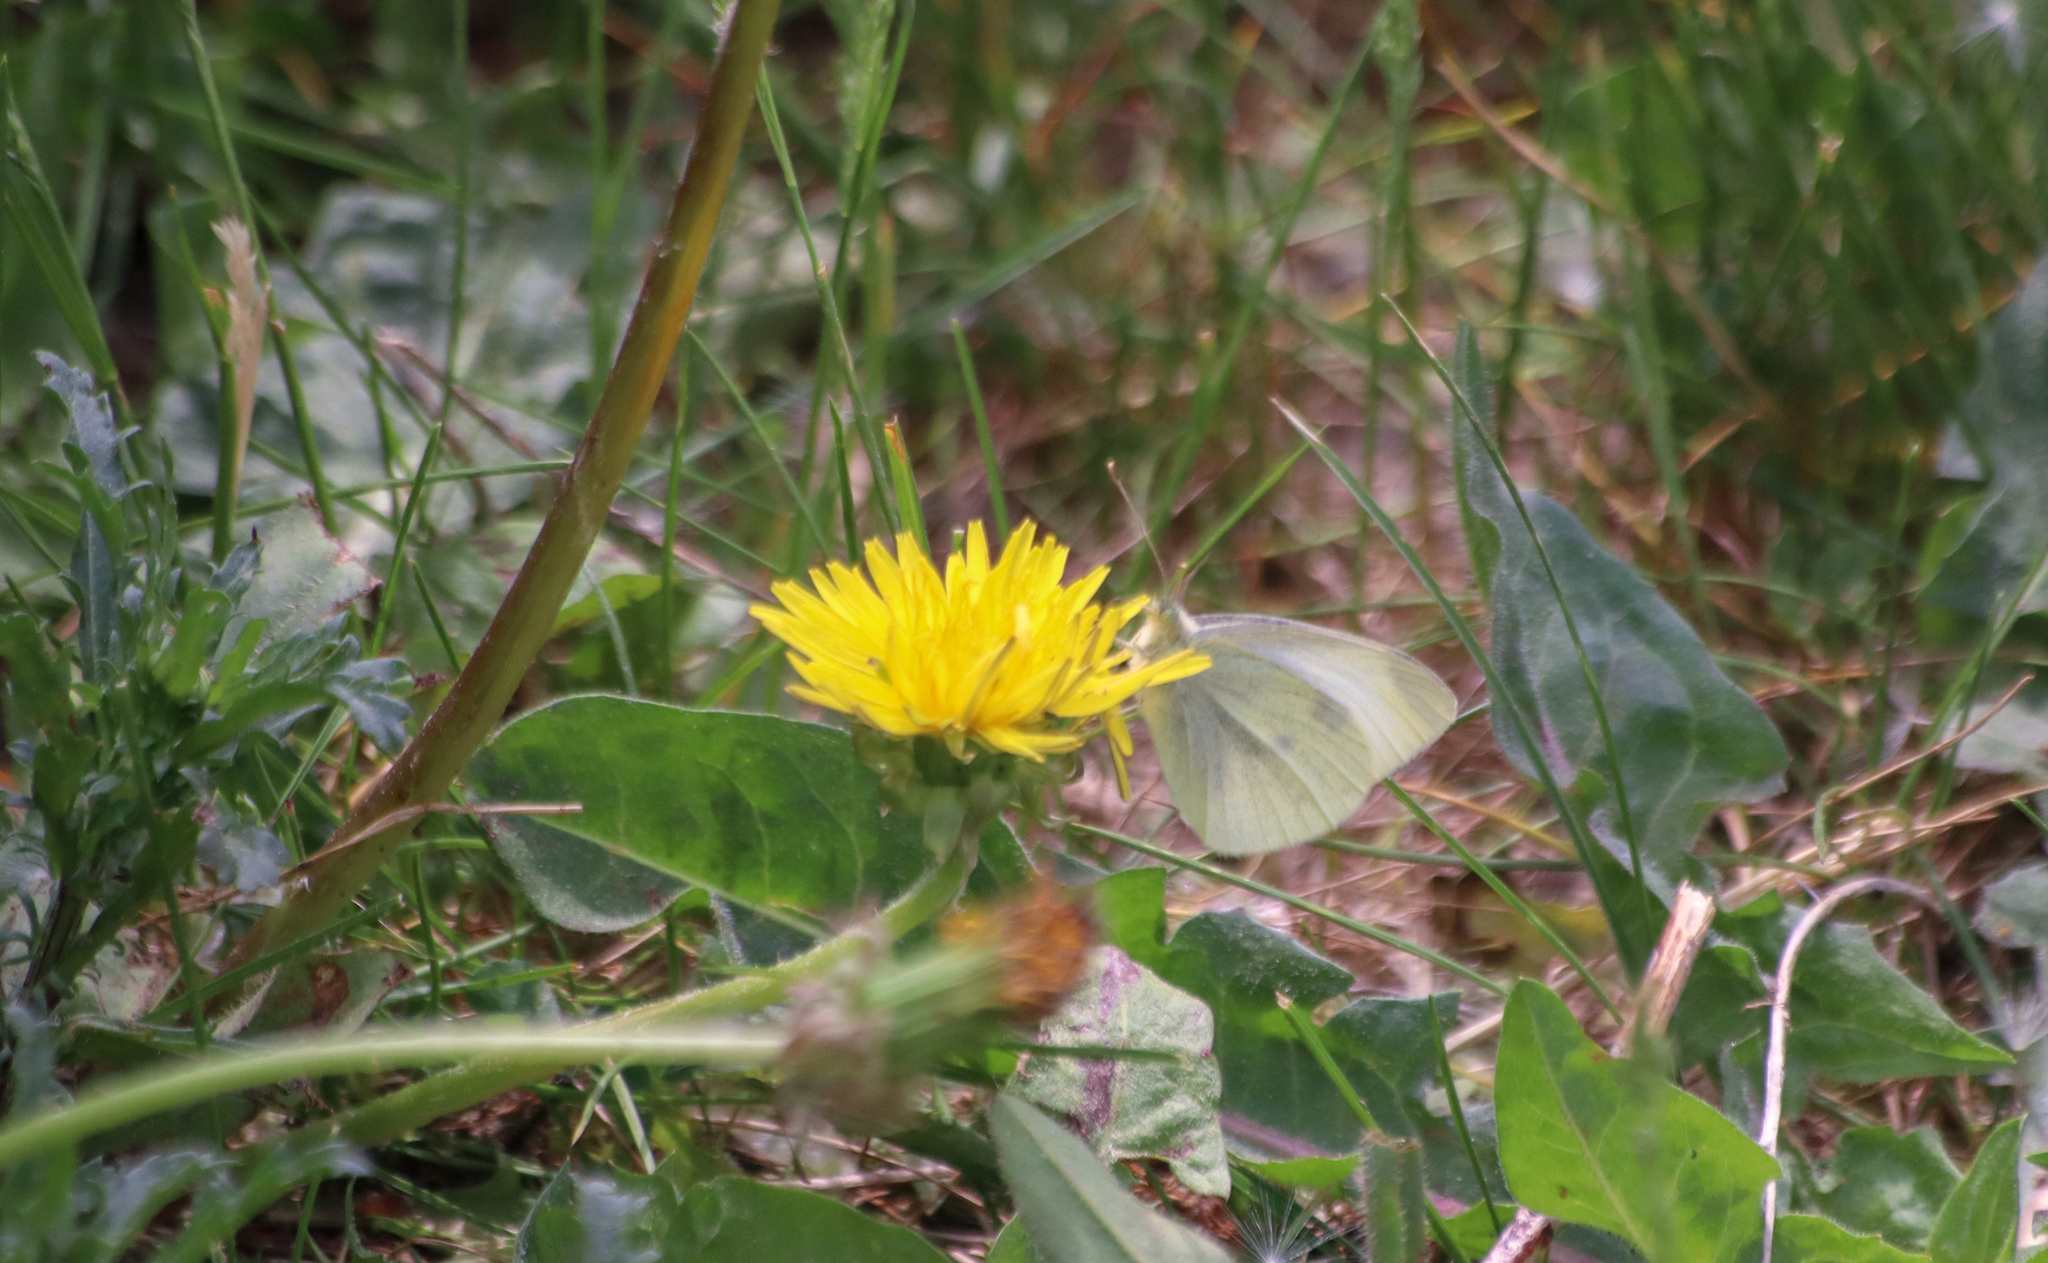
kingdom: Animalia
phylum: Arthropoda
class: Insecta
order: Lepidoptera
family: Pieridae
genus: Pieris
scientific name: Pieris rapae
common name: Small white
